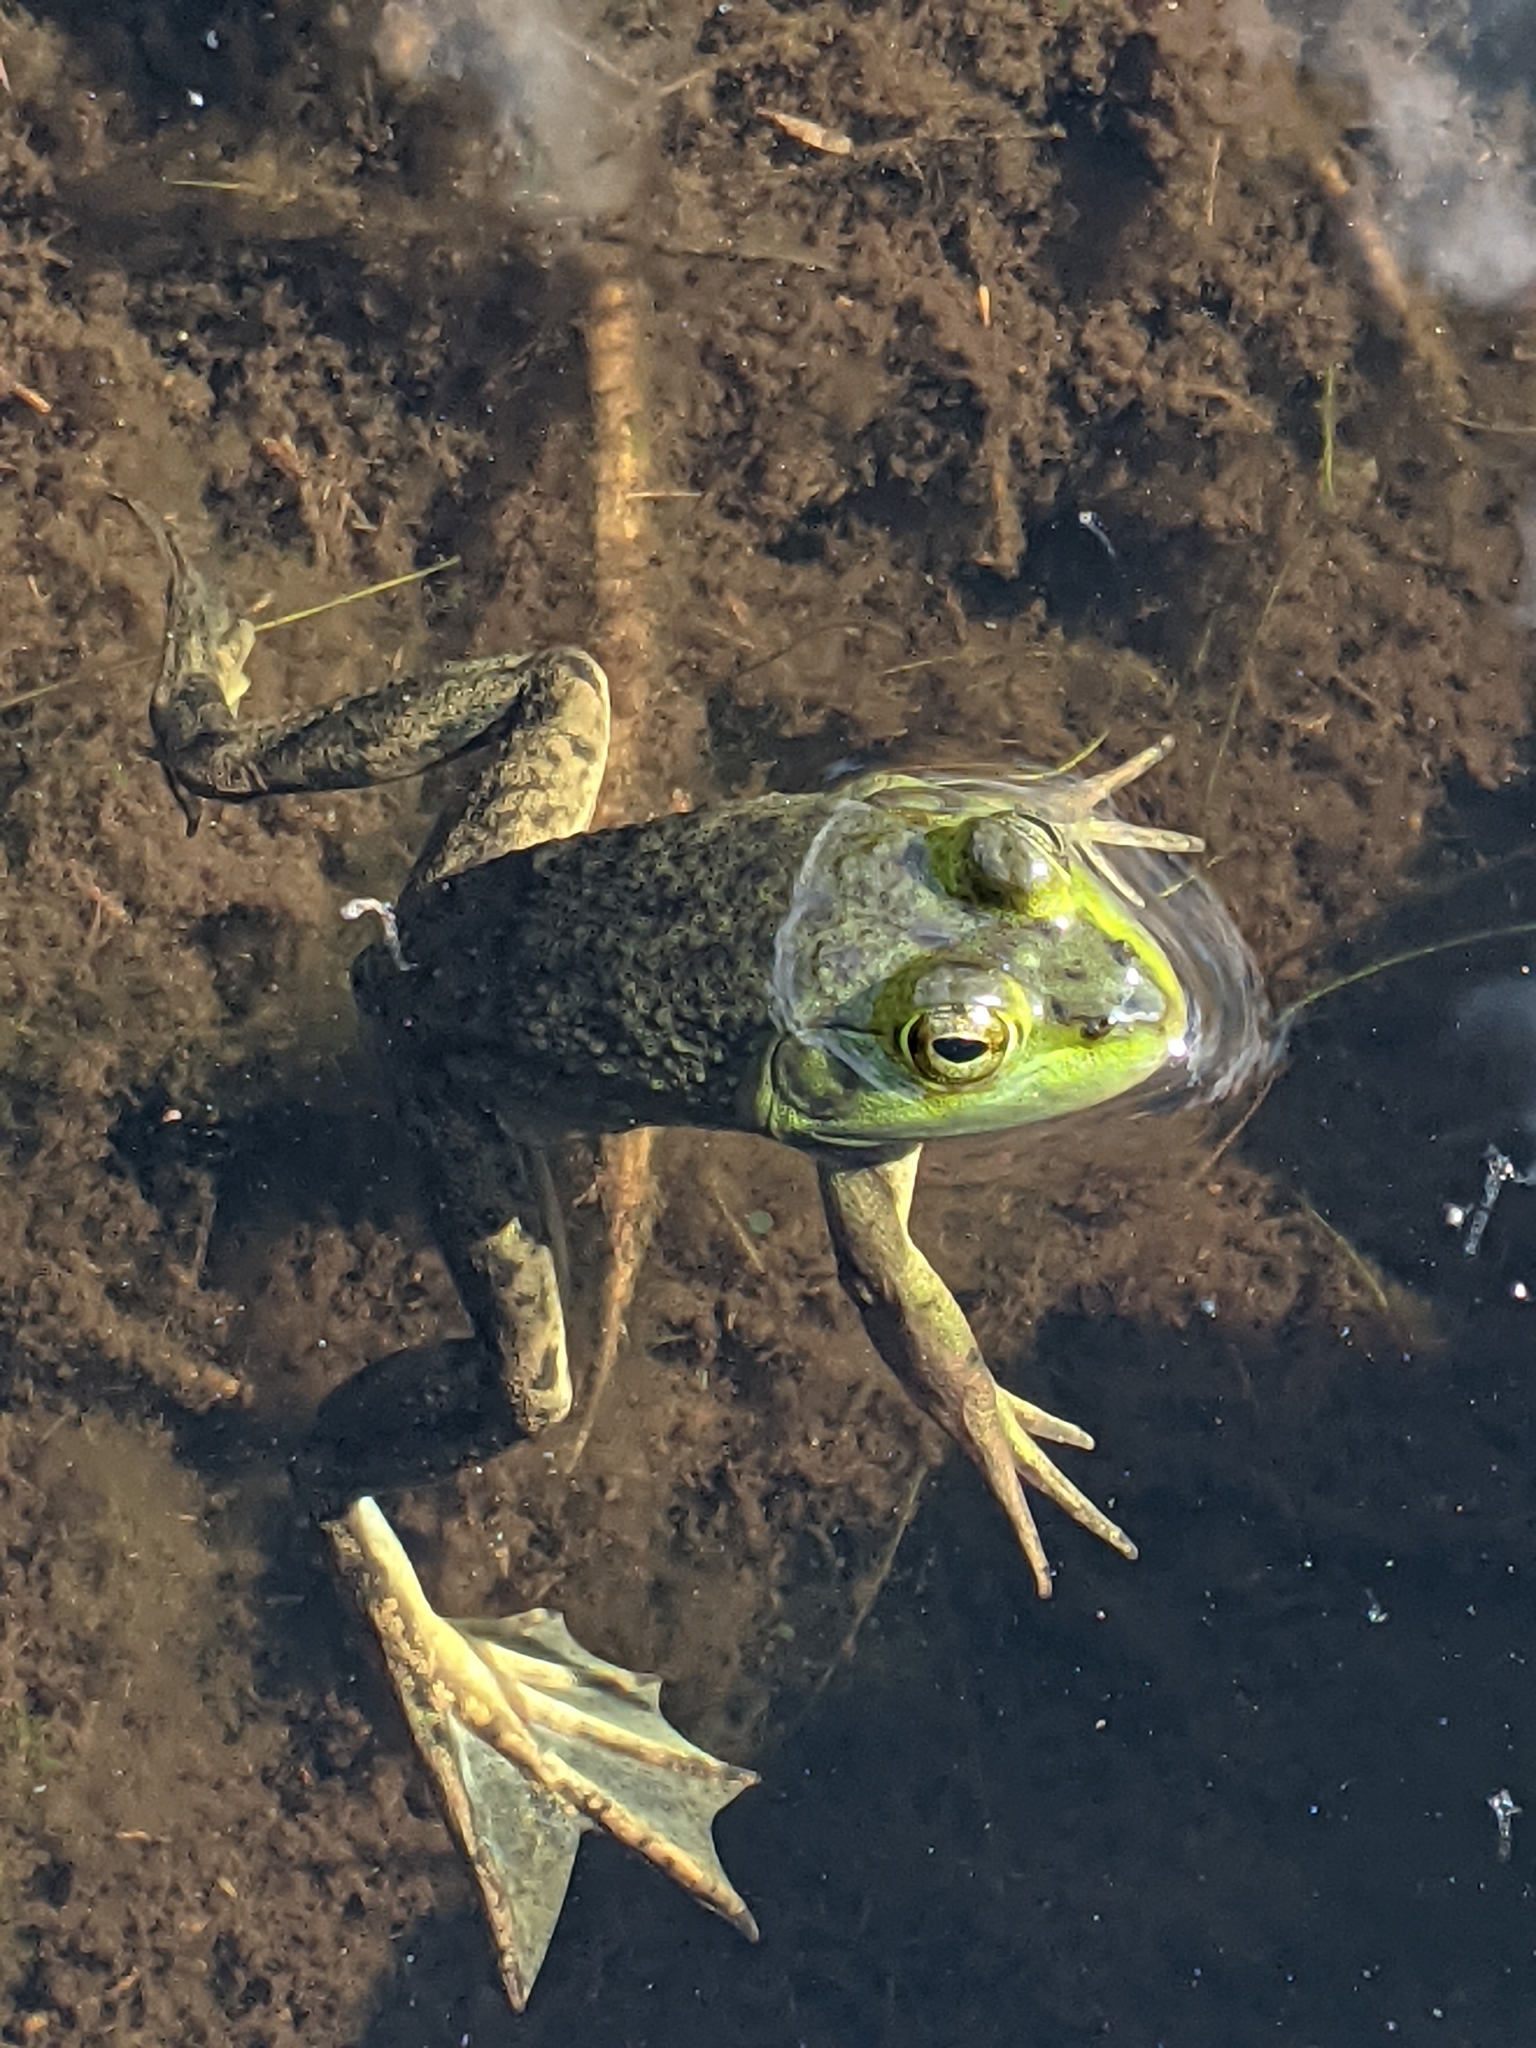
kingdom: Animalia
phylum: Chordata
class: Amphibia
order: Anura
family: Ranidae
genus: Lithobates
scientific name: Lithobates catesbeianus
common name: American bullfrog
